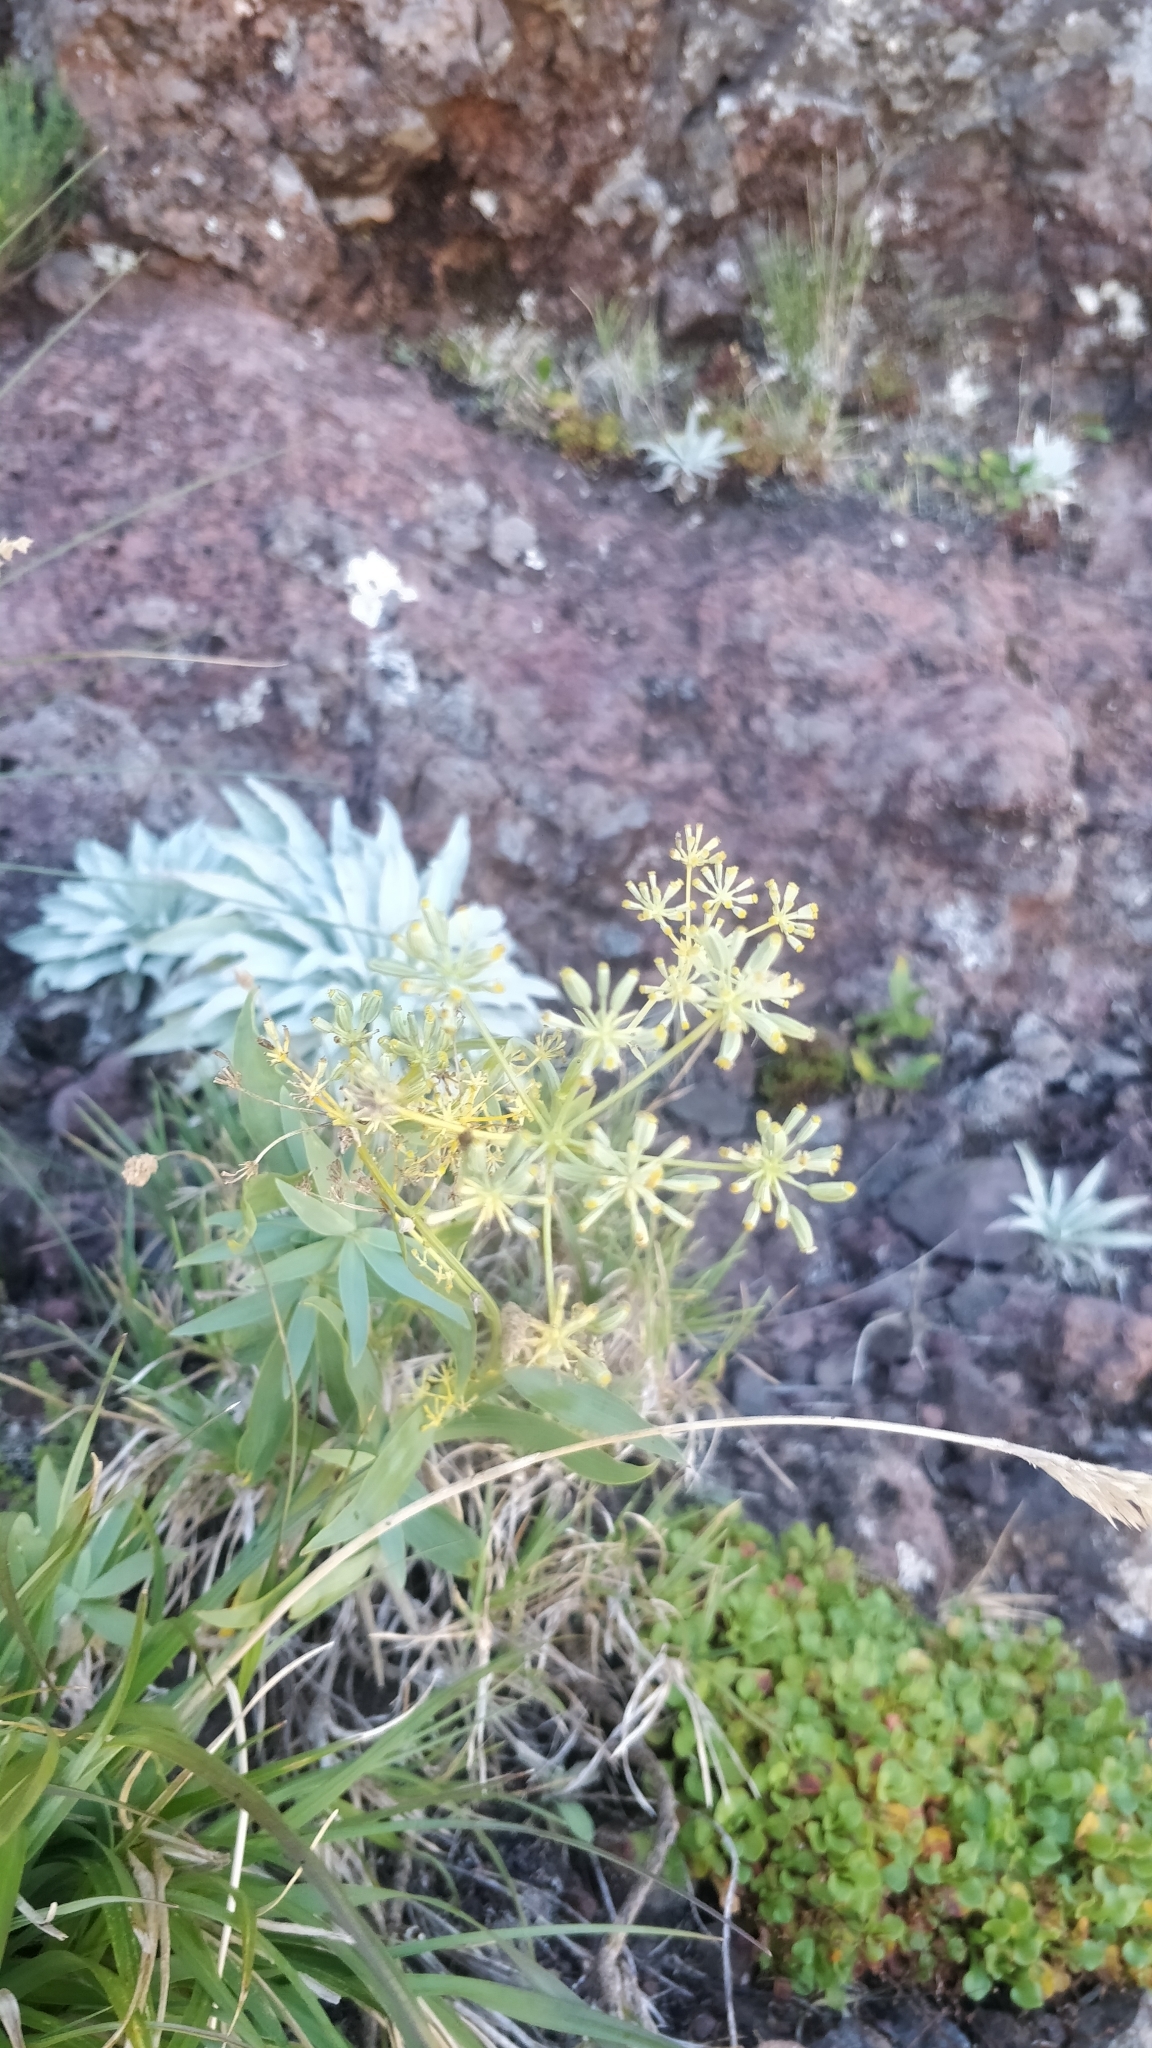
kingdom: Plantae
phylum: Tracheophyta
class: Magnoliopsida
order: Apiales
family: Apiaceae
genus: Bupleurum
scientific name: Bupleurum salicifolium
